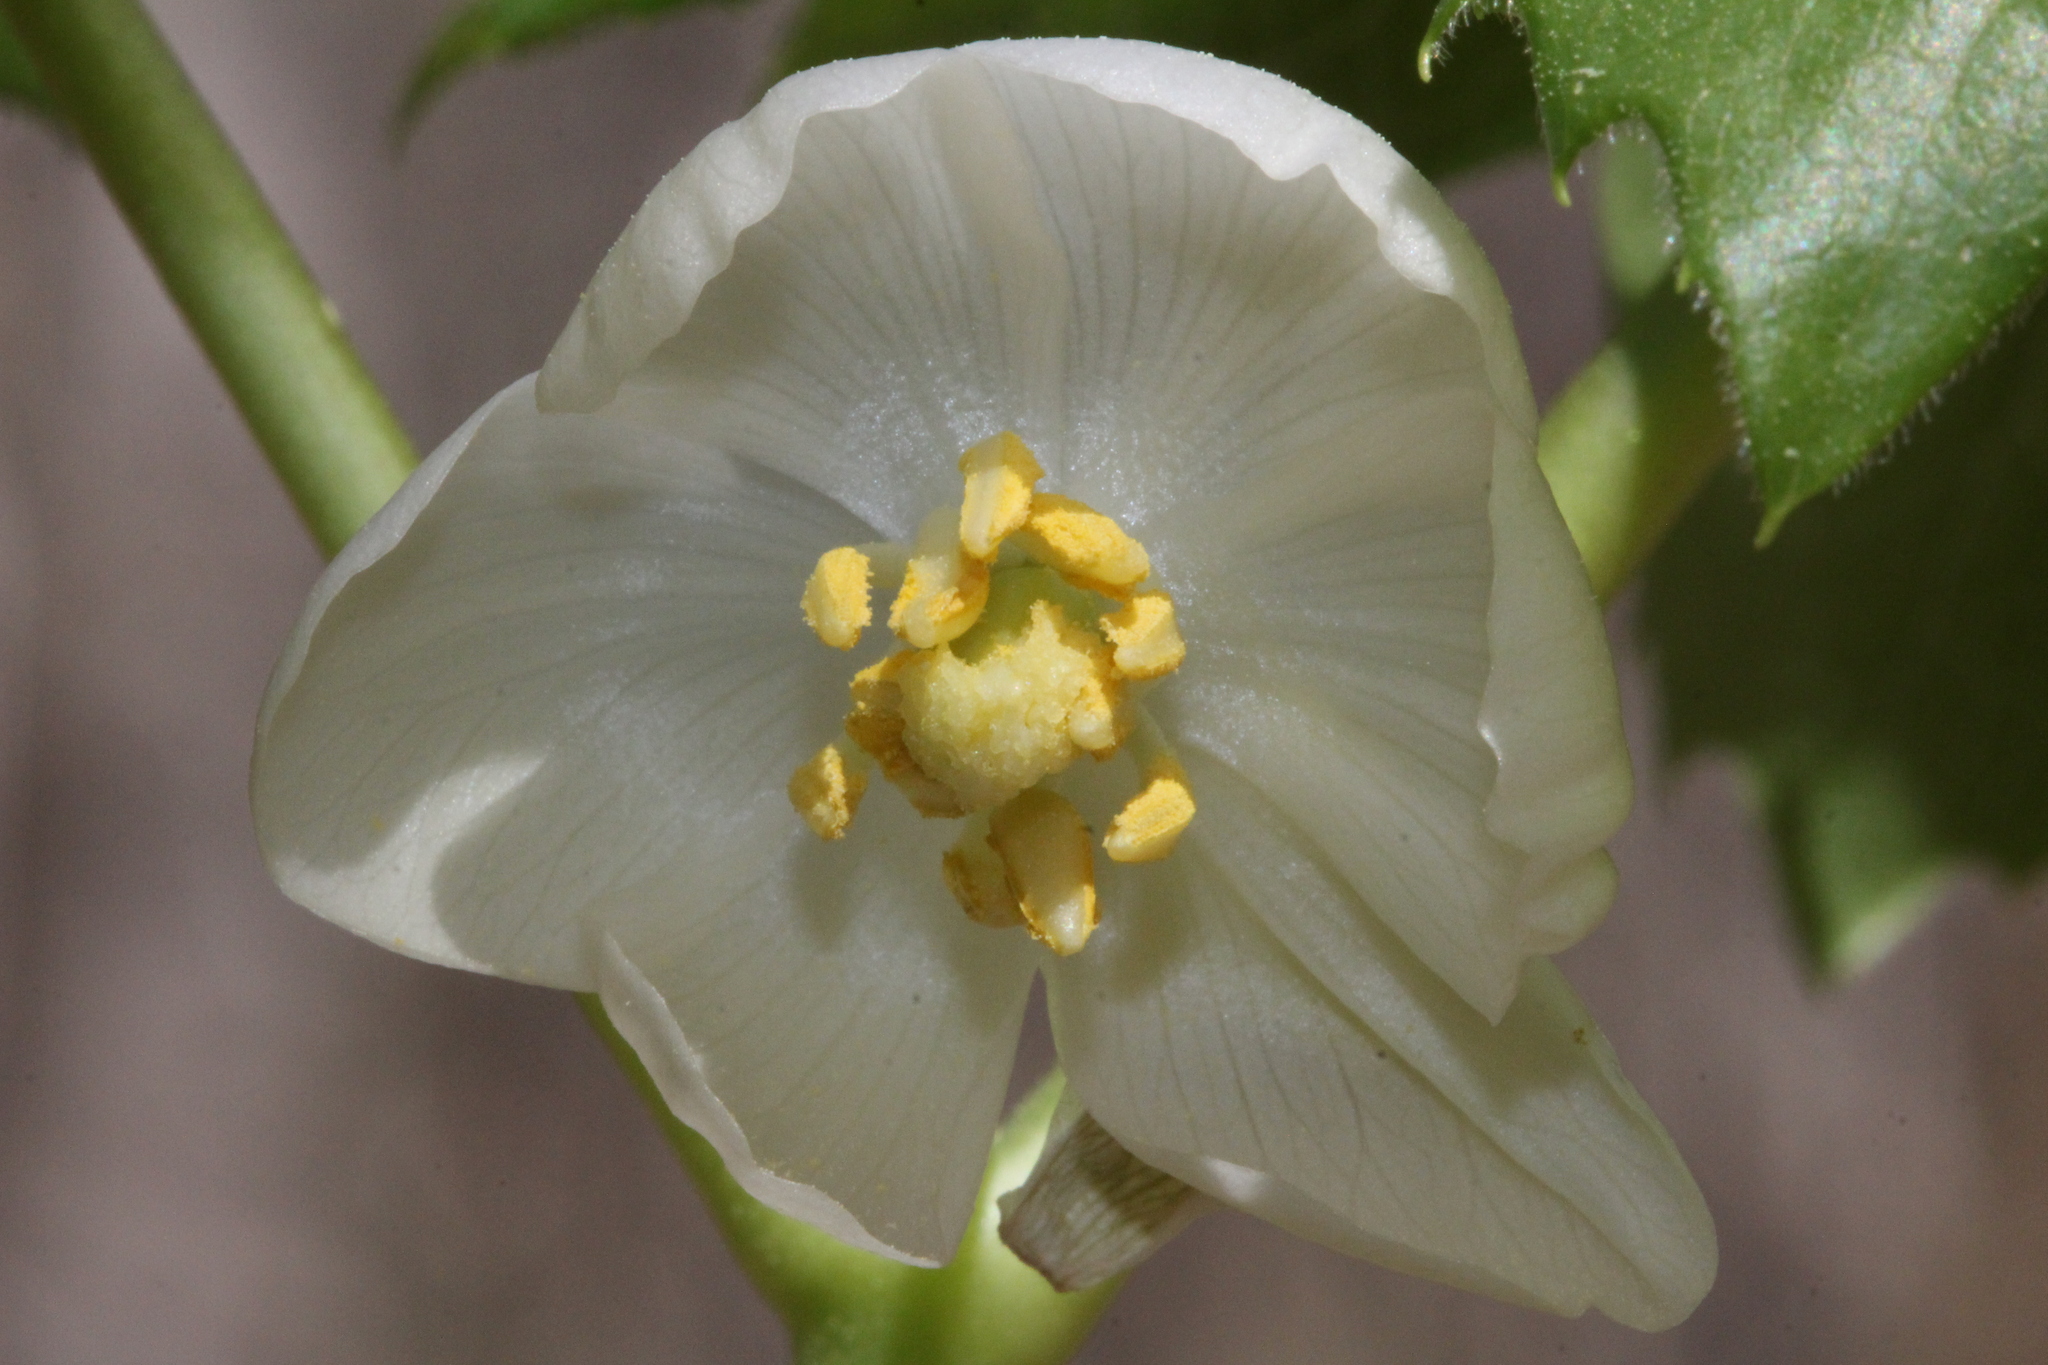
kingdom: Plantae
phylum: Tracheophyta
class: Magnoliopsida
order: Ranunculales
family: Berberidaceae
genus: Podophyllum
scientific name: Podophyllum peltatum
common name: Wild mandrake
